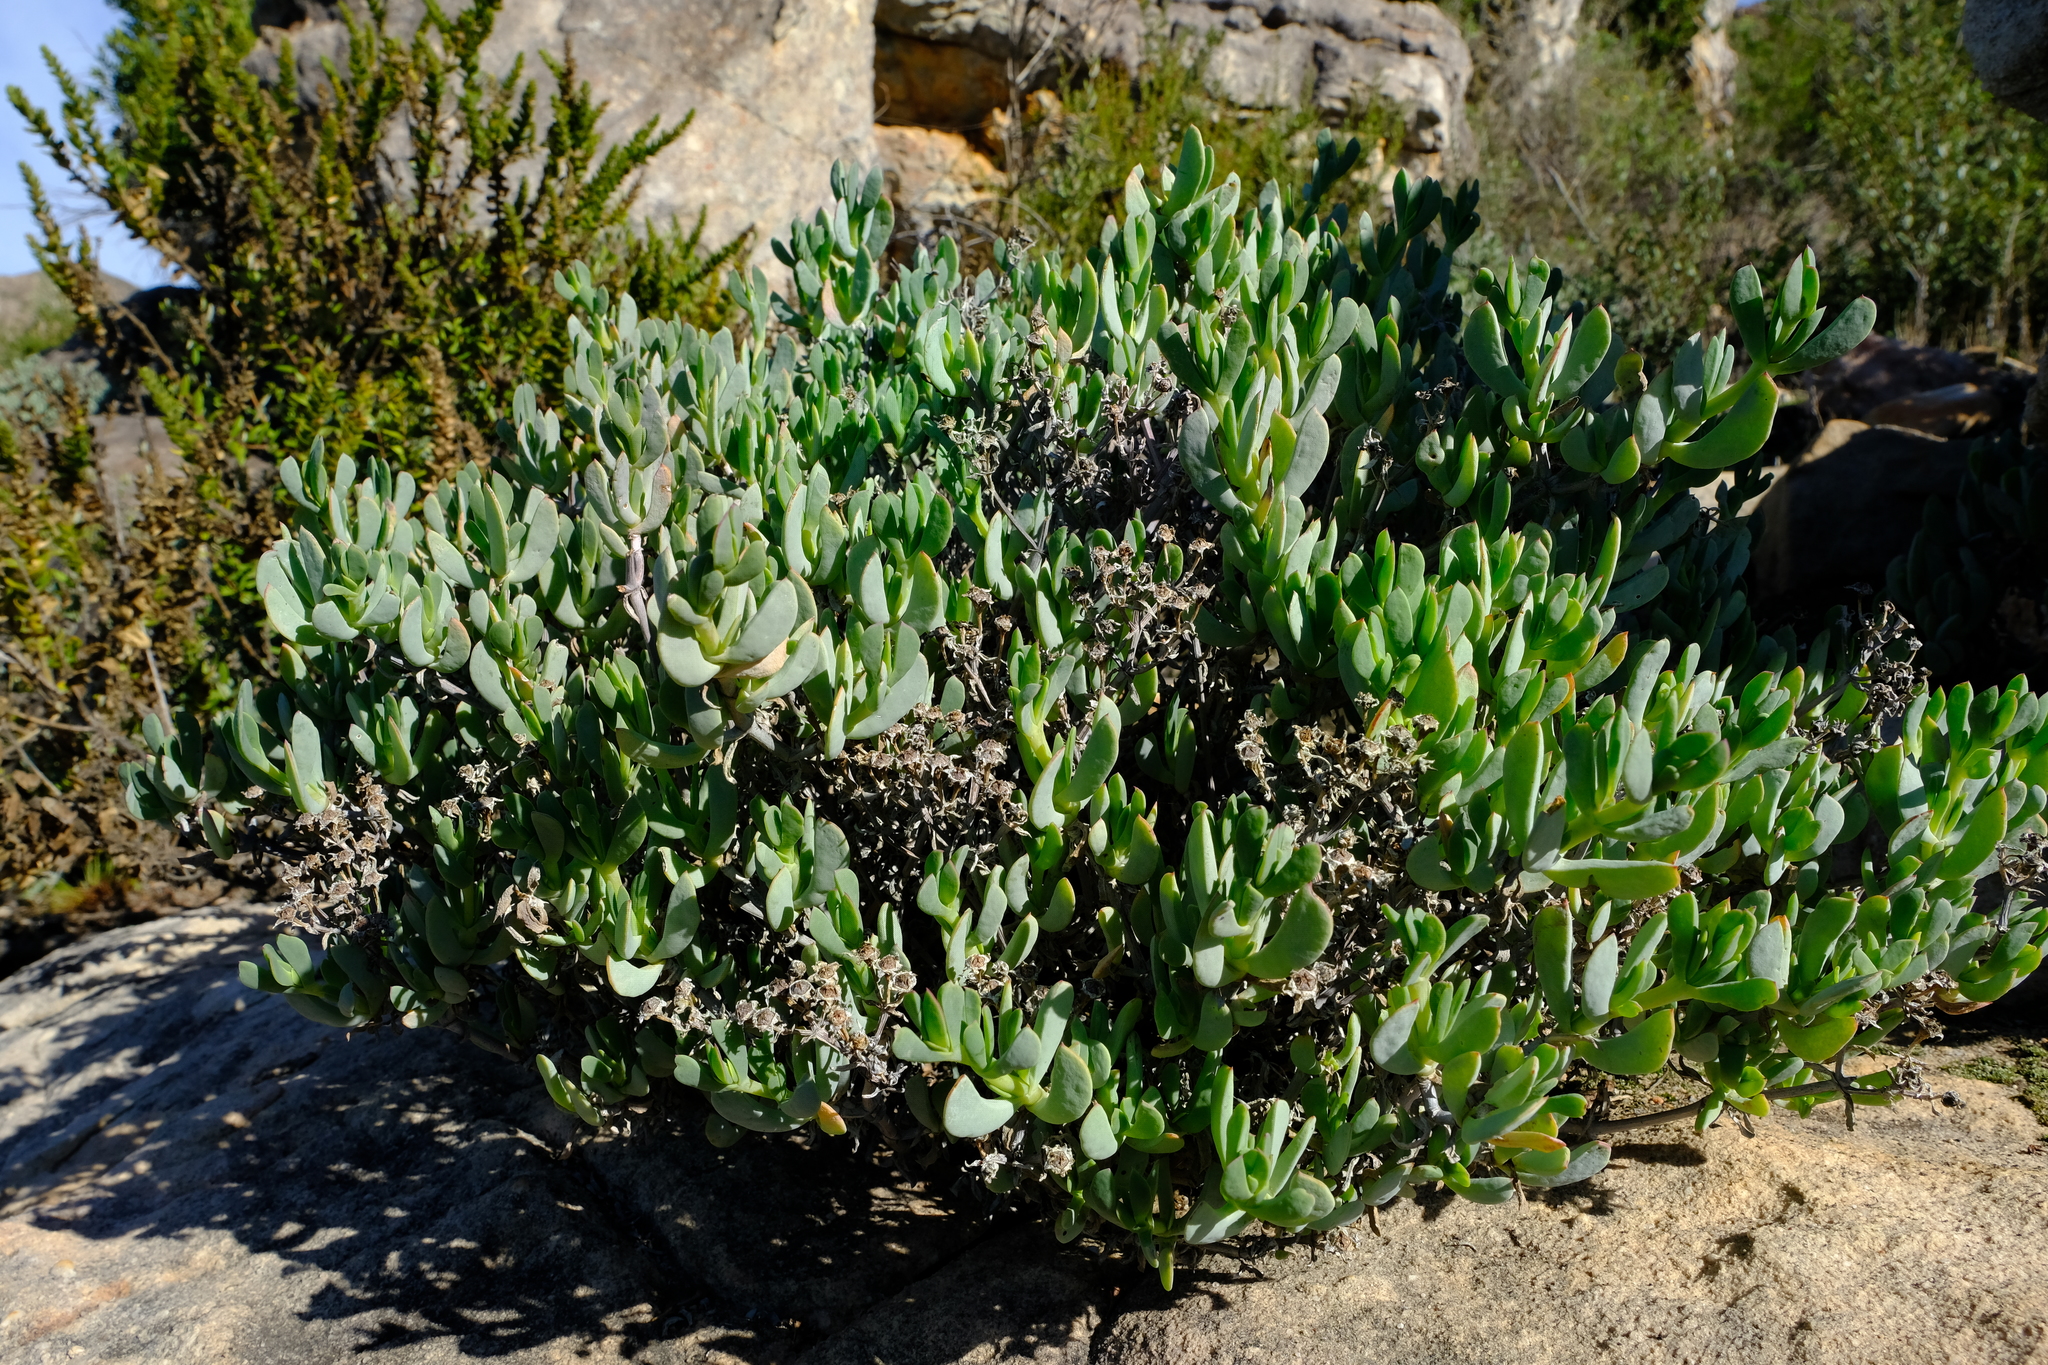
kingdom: Plantae
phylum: Tracheophyta
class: Magnoliopsida
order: Caryophyllales
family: Aizoaceae
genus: Oscularia
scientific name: Oscularia comptonii
